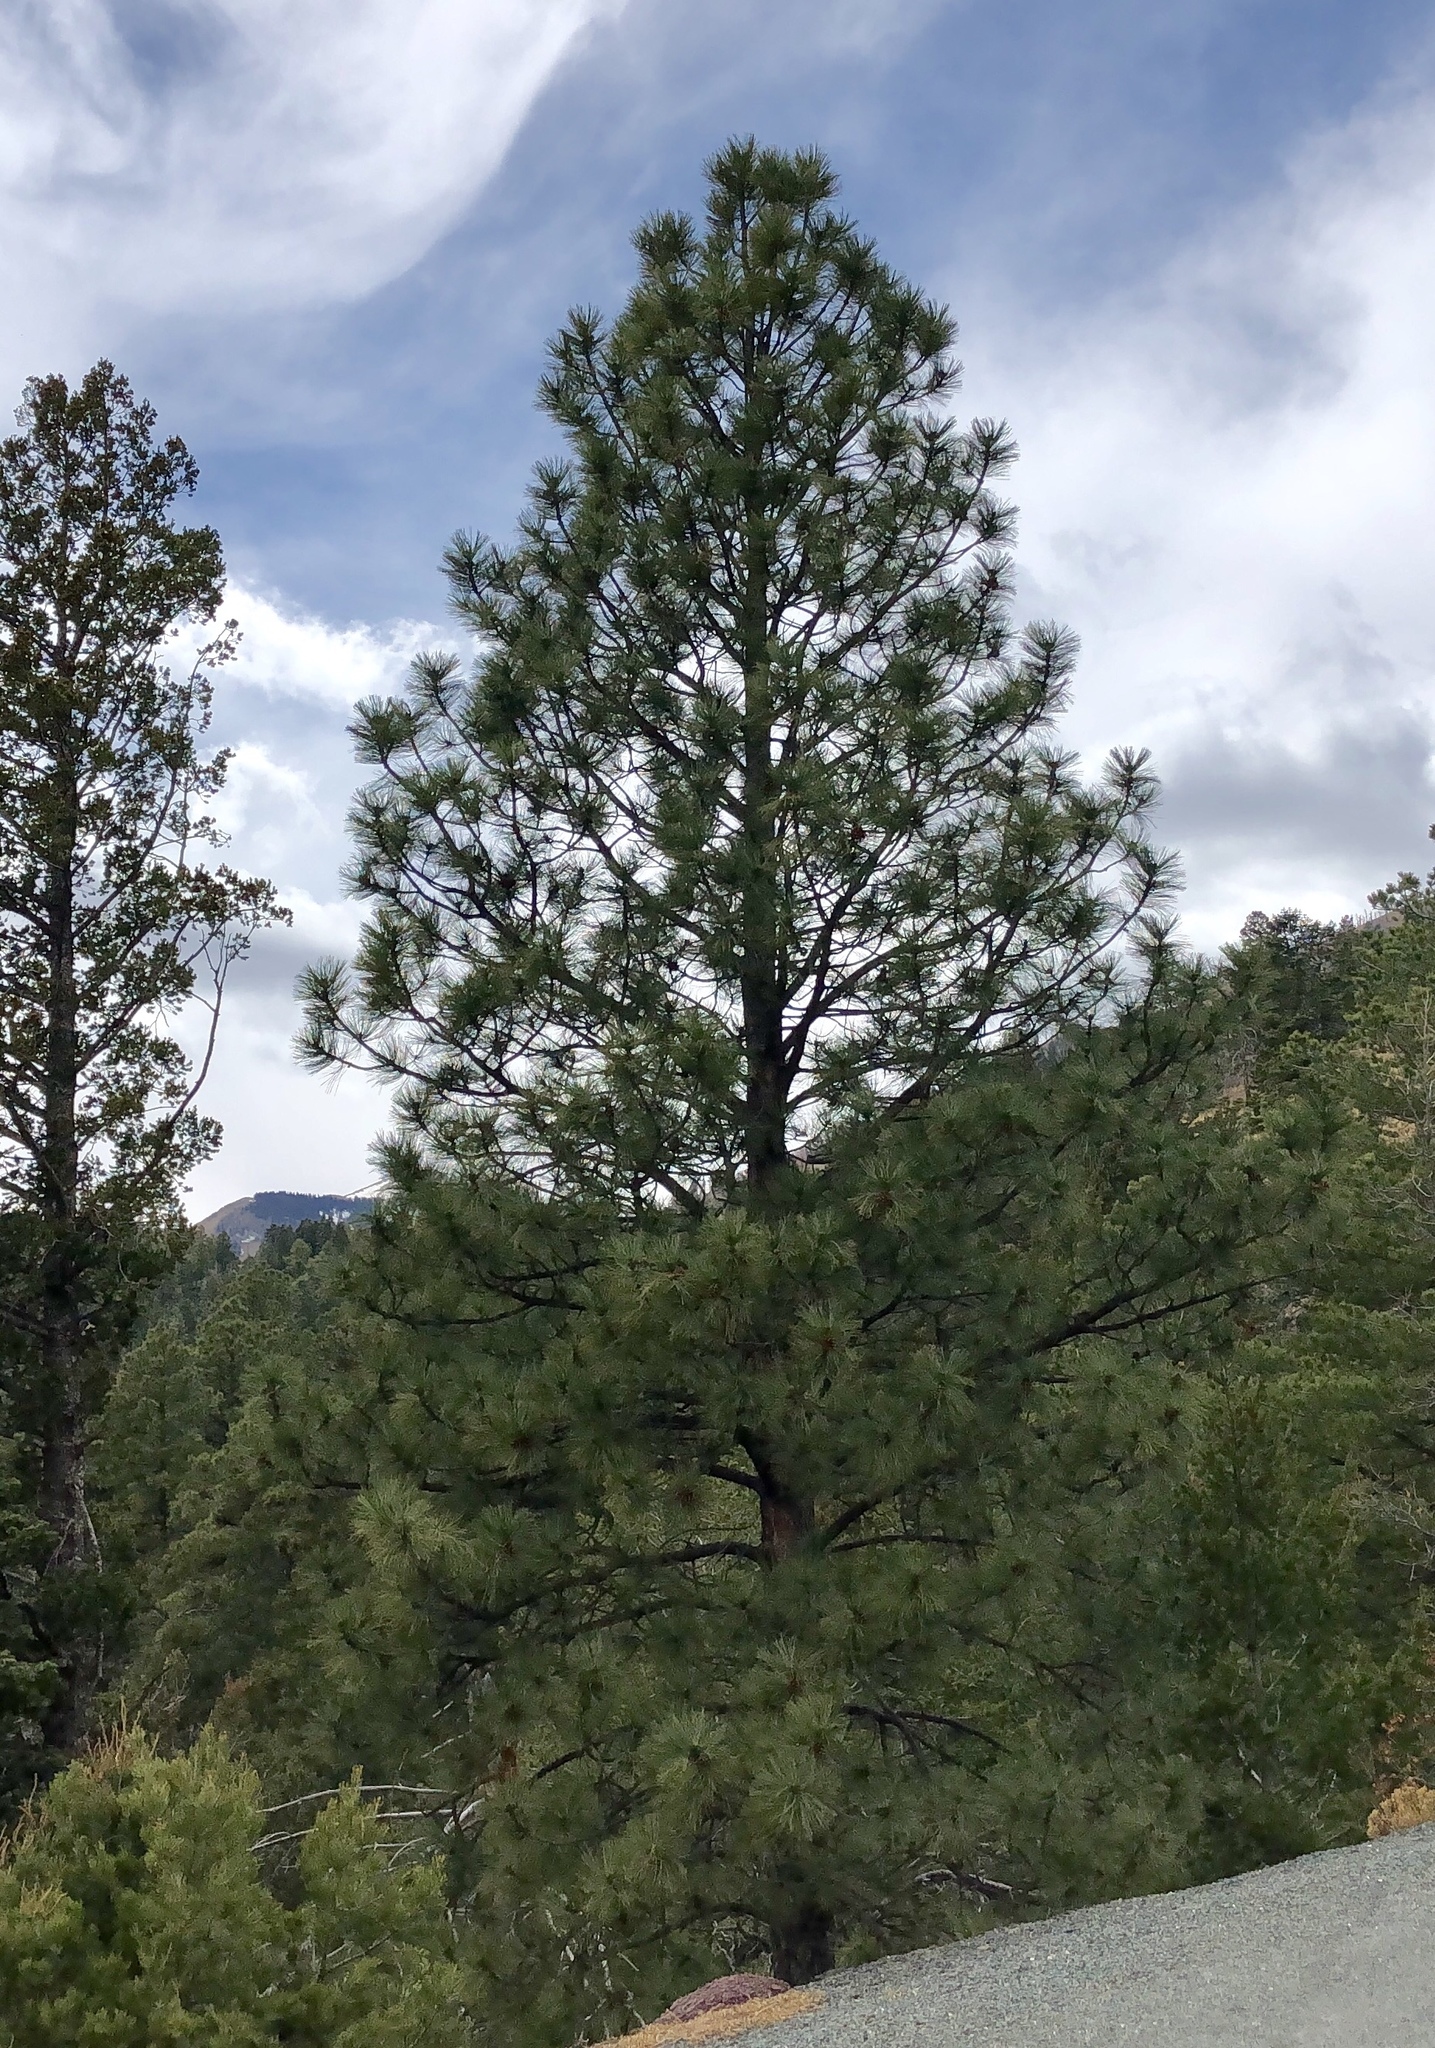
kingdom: Plantae
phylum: Tracheophyta
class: Pinopsida
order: Pinales
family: Pinaceae
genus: Pinus
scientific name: Pinus ponderosa
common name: Western yellow-pine
